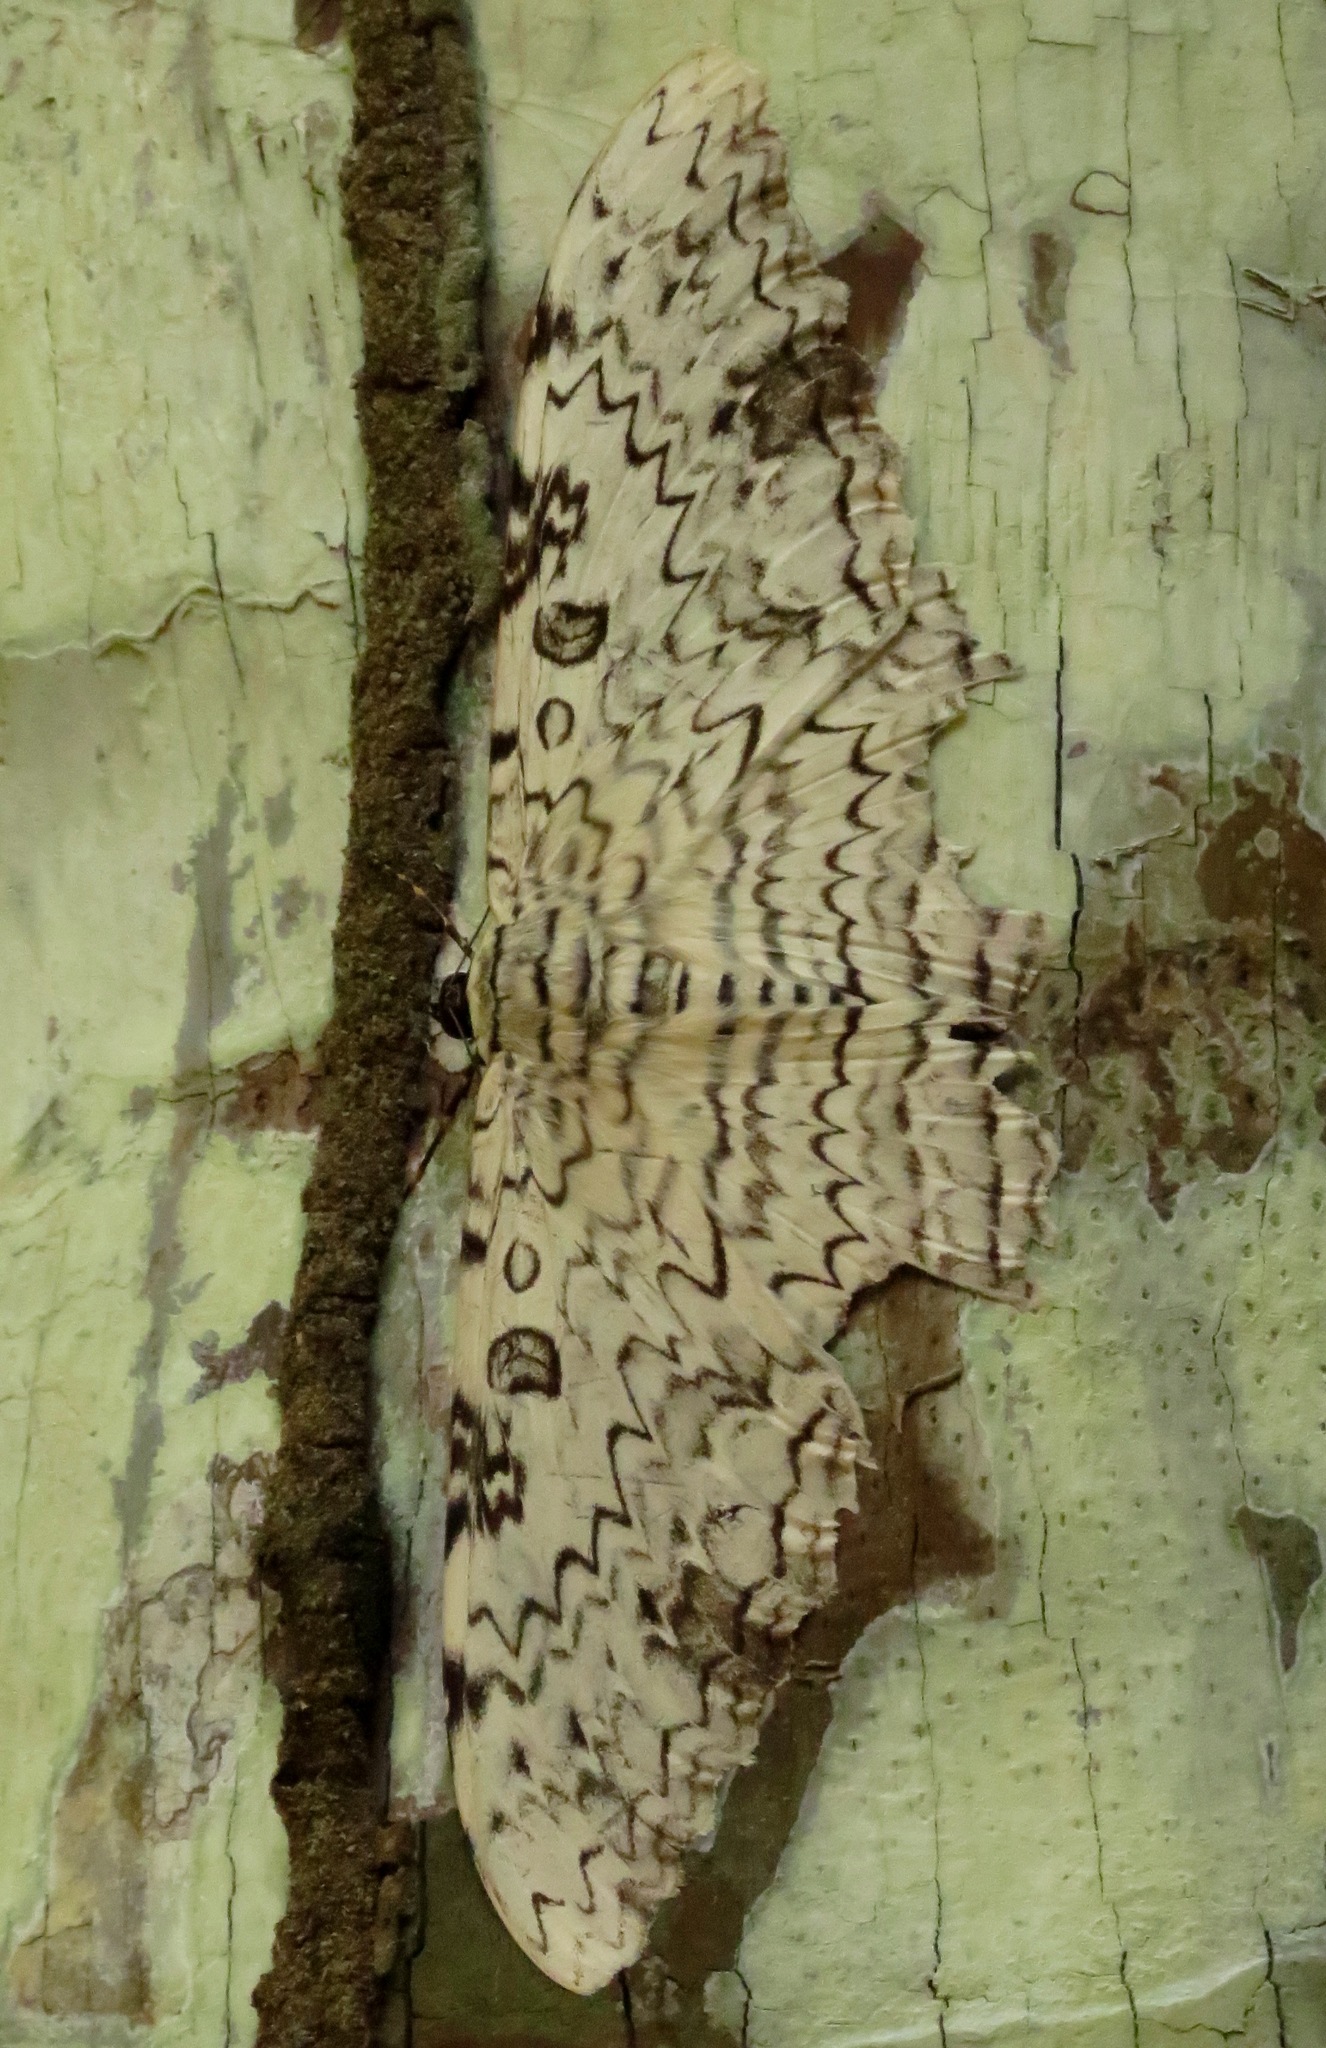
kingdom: Animalia
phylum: Arthropoda
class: Insecta
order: Lepidoptera
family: Erebidae
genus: Thysania
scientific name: Thysania agrippina
